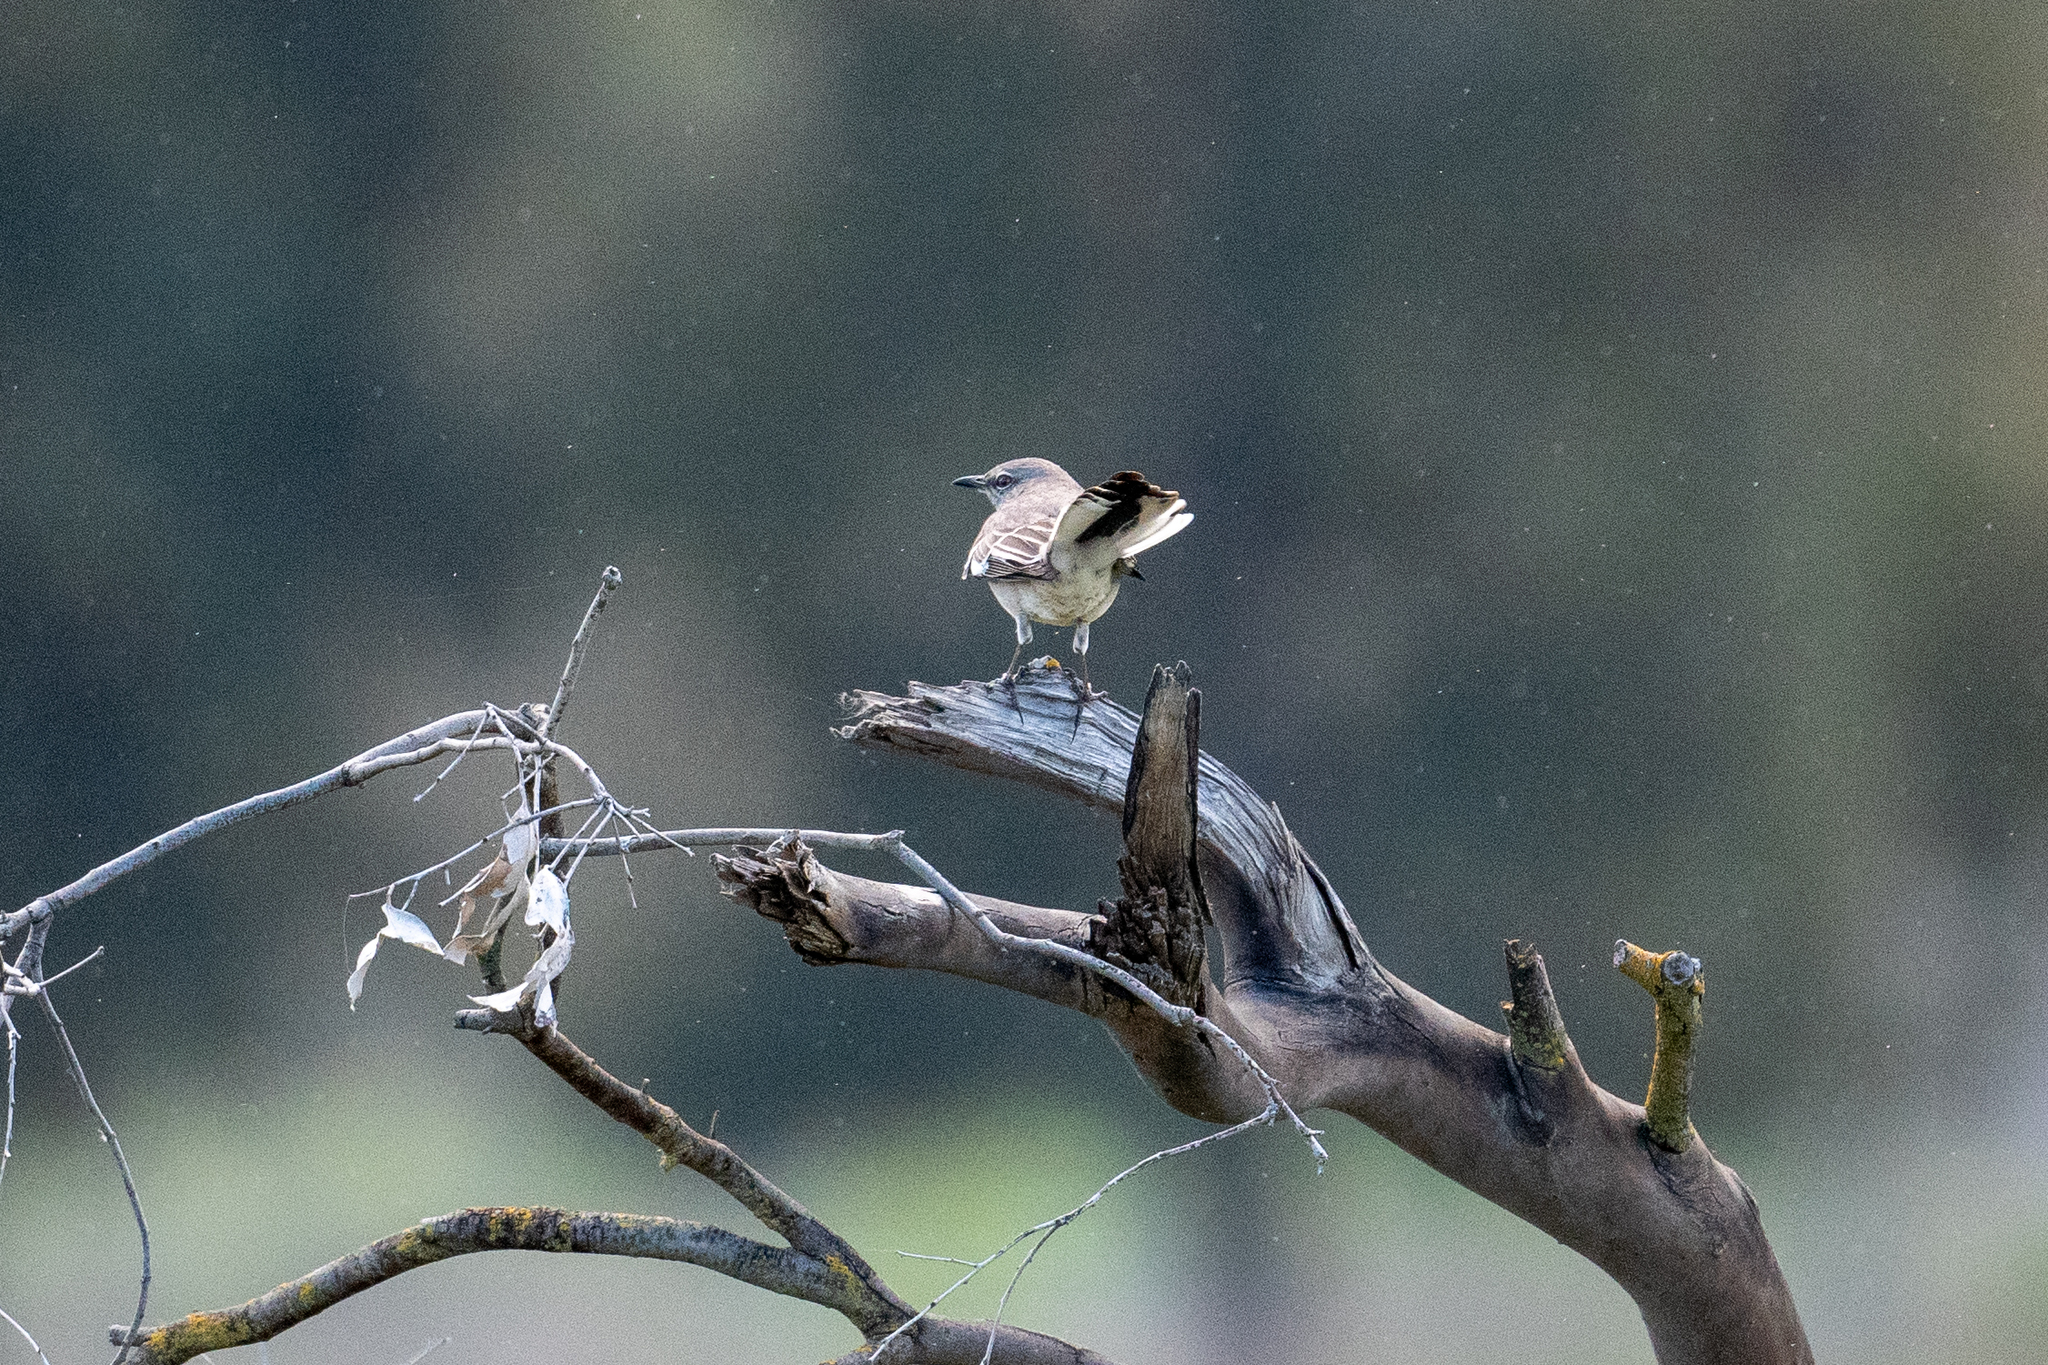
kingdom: Animalia
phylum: Chordata
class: Aves
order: Passeriformes
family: Mimidae
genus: Mimus
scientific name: Mimus polyglottos
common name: Northern mockingbird
